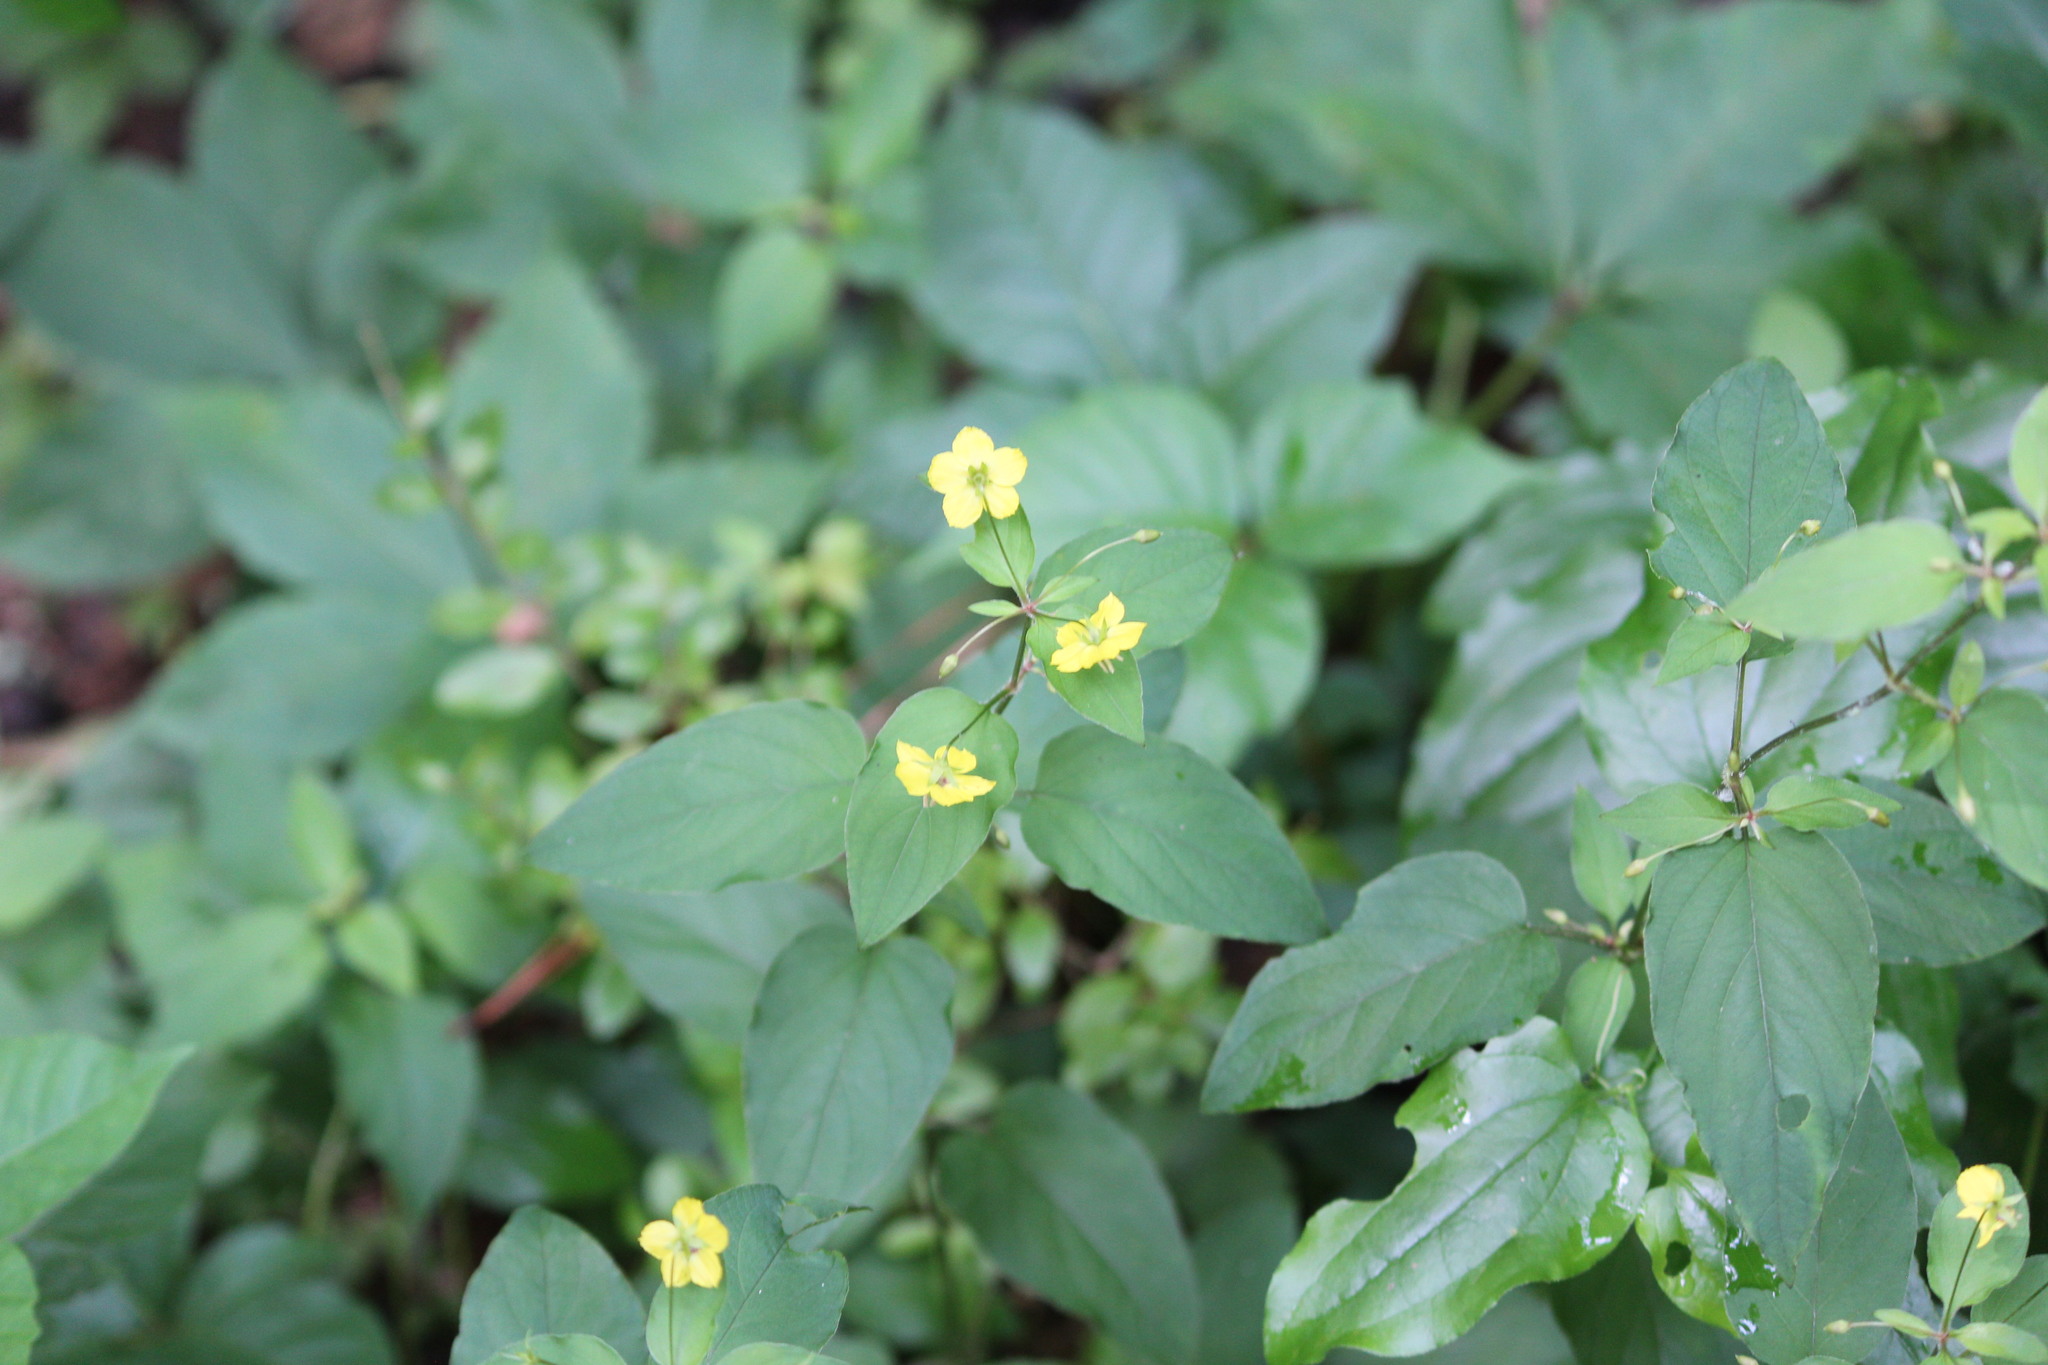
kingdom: Plantae
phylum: Tracheophyta
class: Magnoliopsida
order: Ericales
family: Primulaceae
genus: Lysimachia
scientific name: Lysimachia ciliata
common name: Fringed loosestrife
